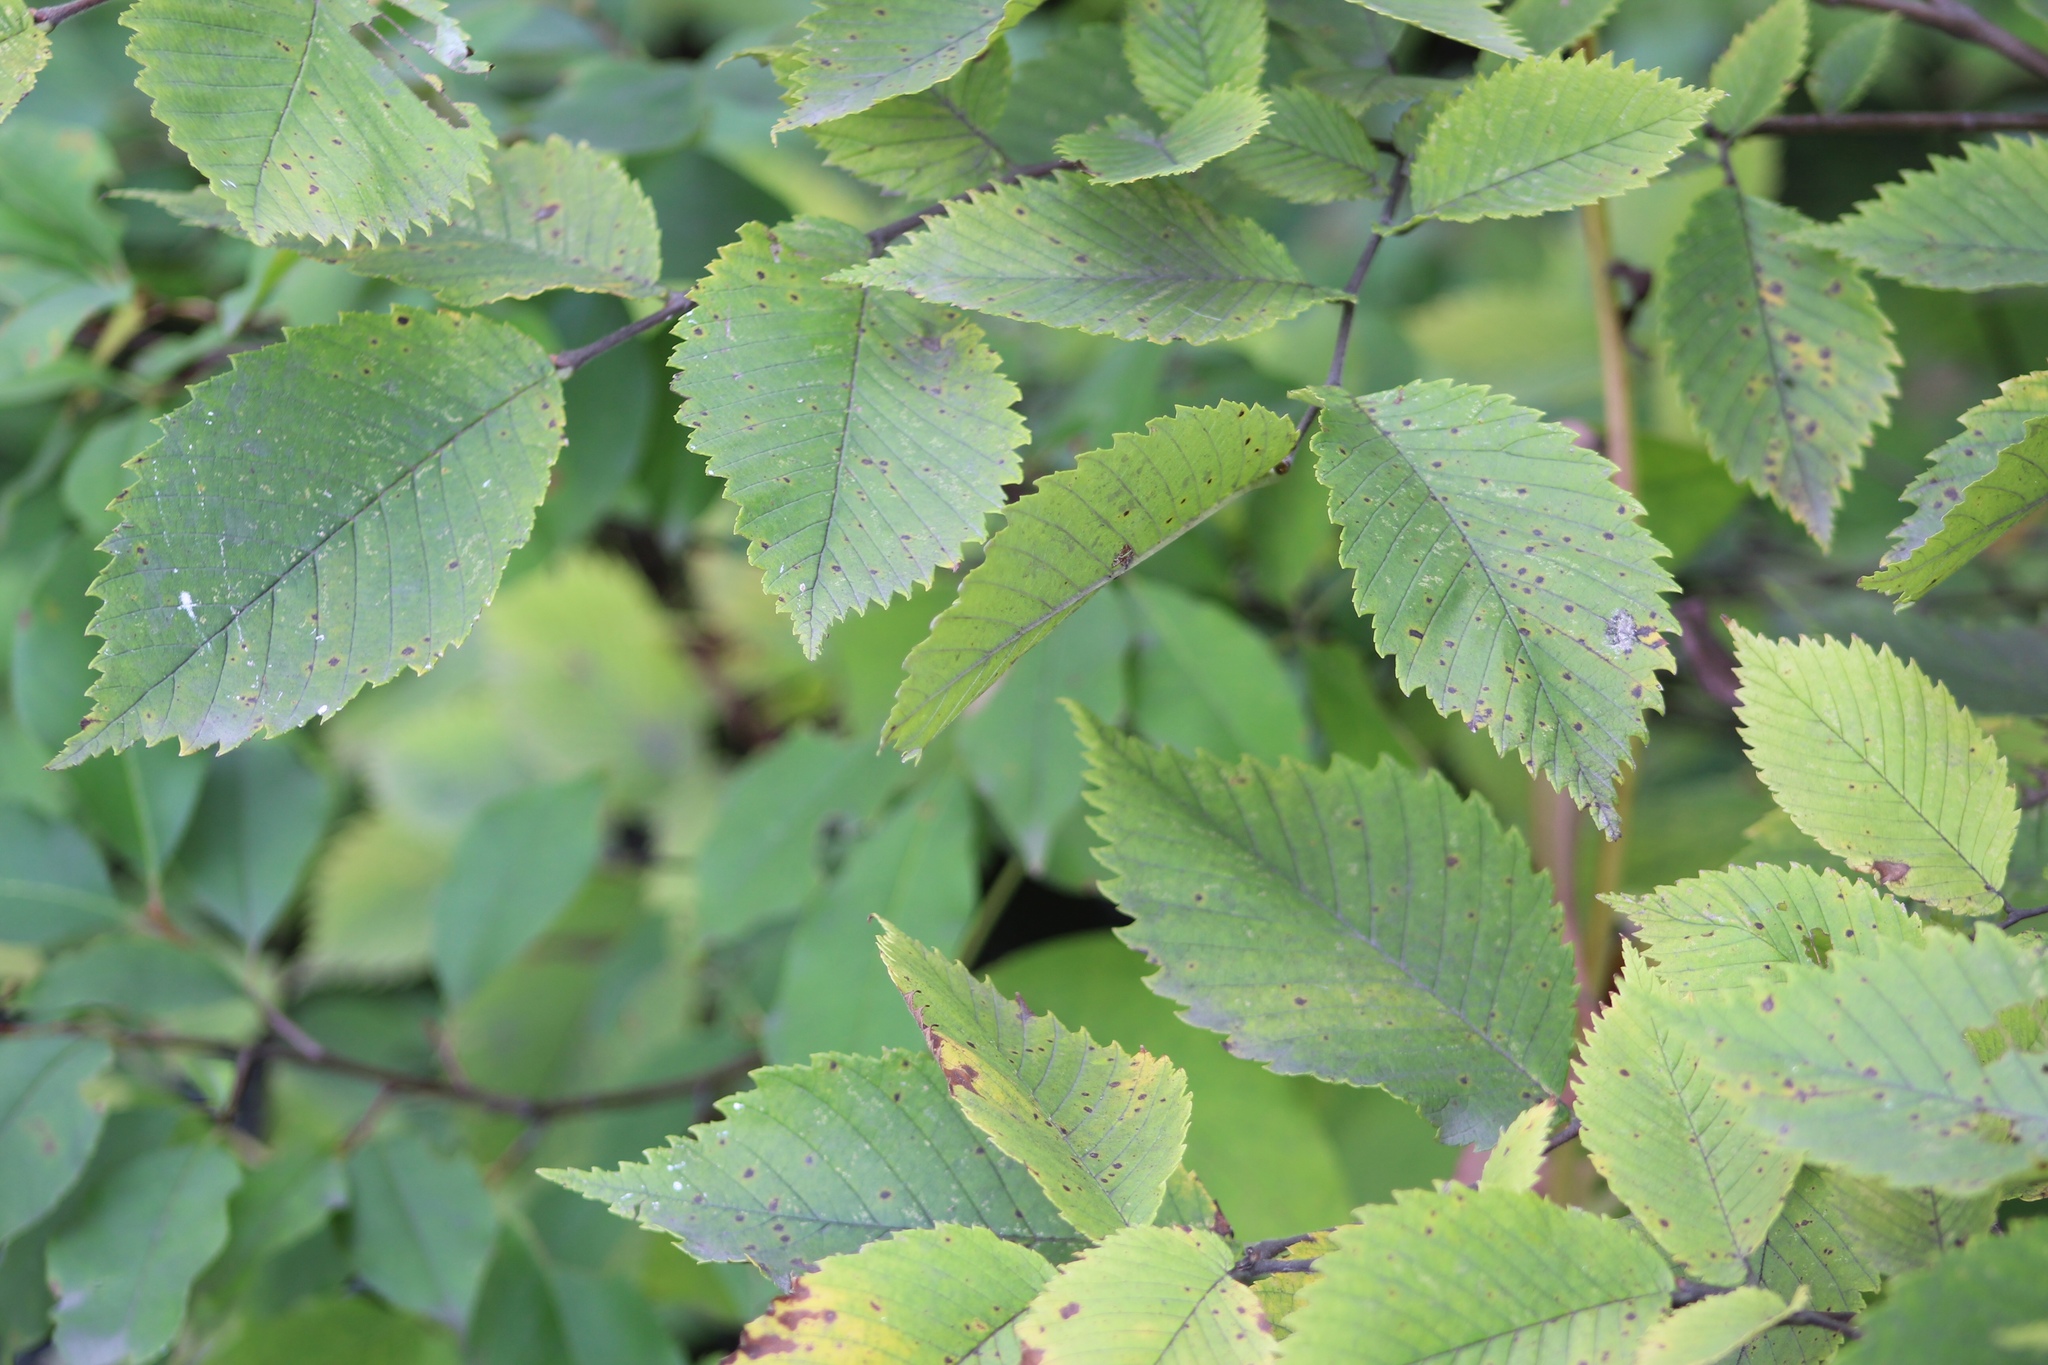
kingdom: Plantae
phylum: Tracheophyta
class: Magnoliopsida
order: Rosales
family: Ulmaceae
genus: Ulmus
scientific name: Ulmus americana
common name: American elm
